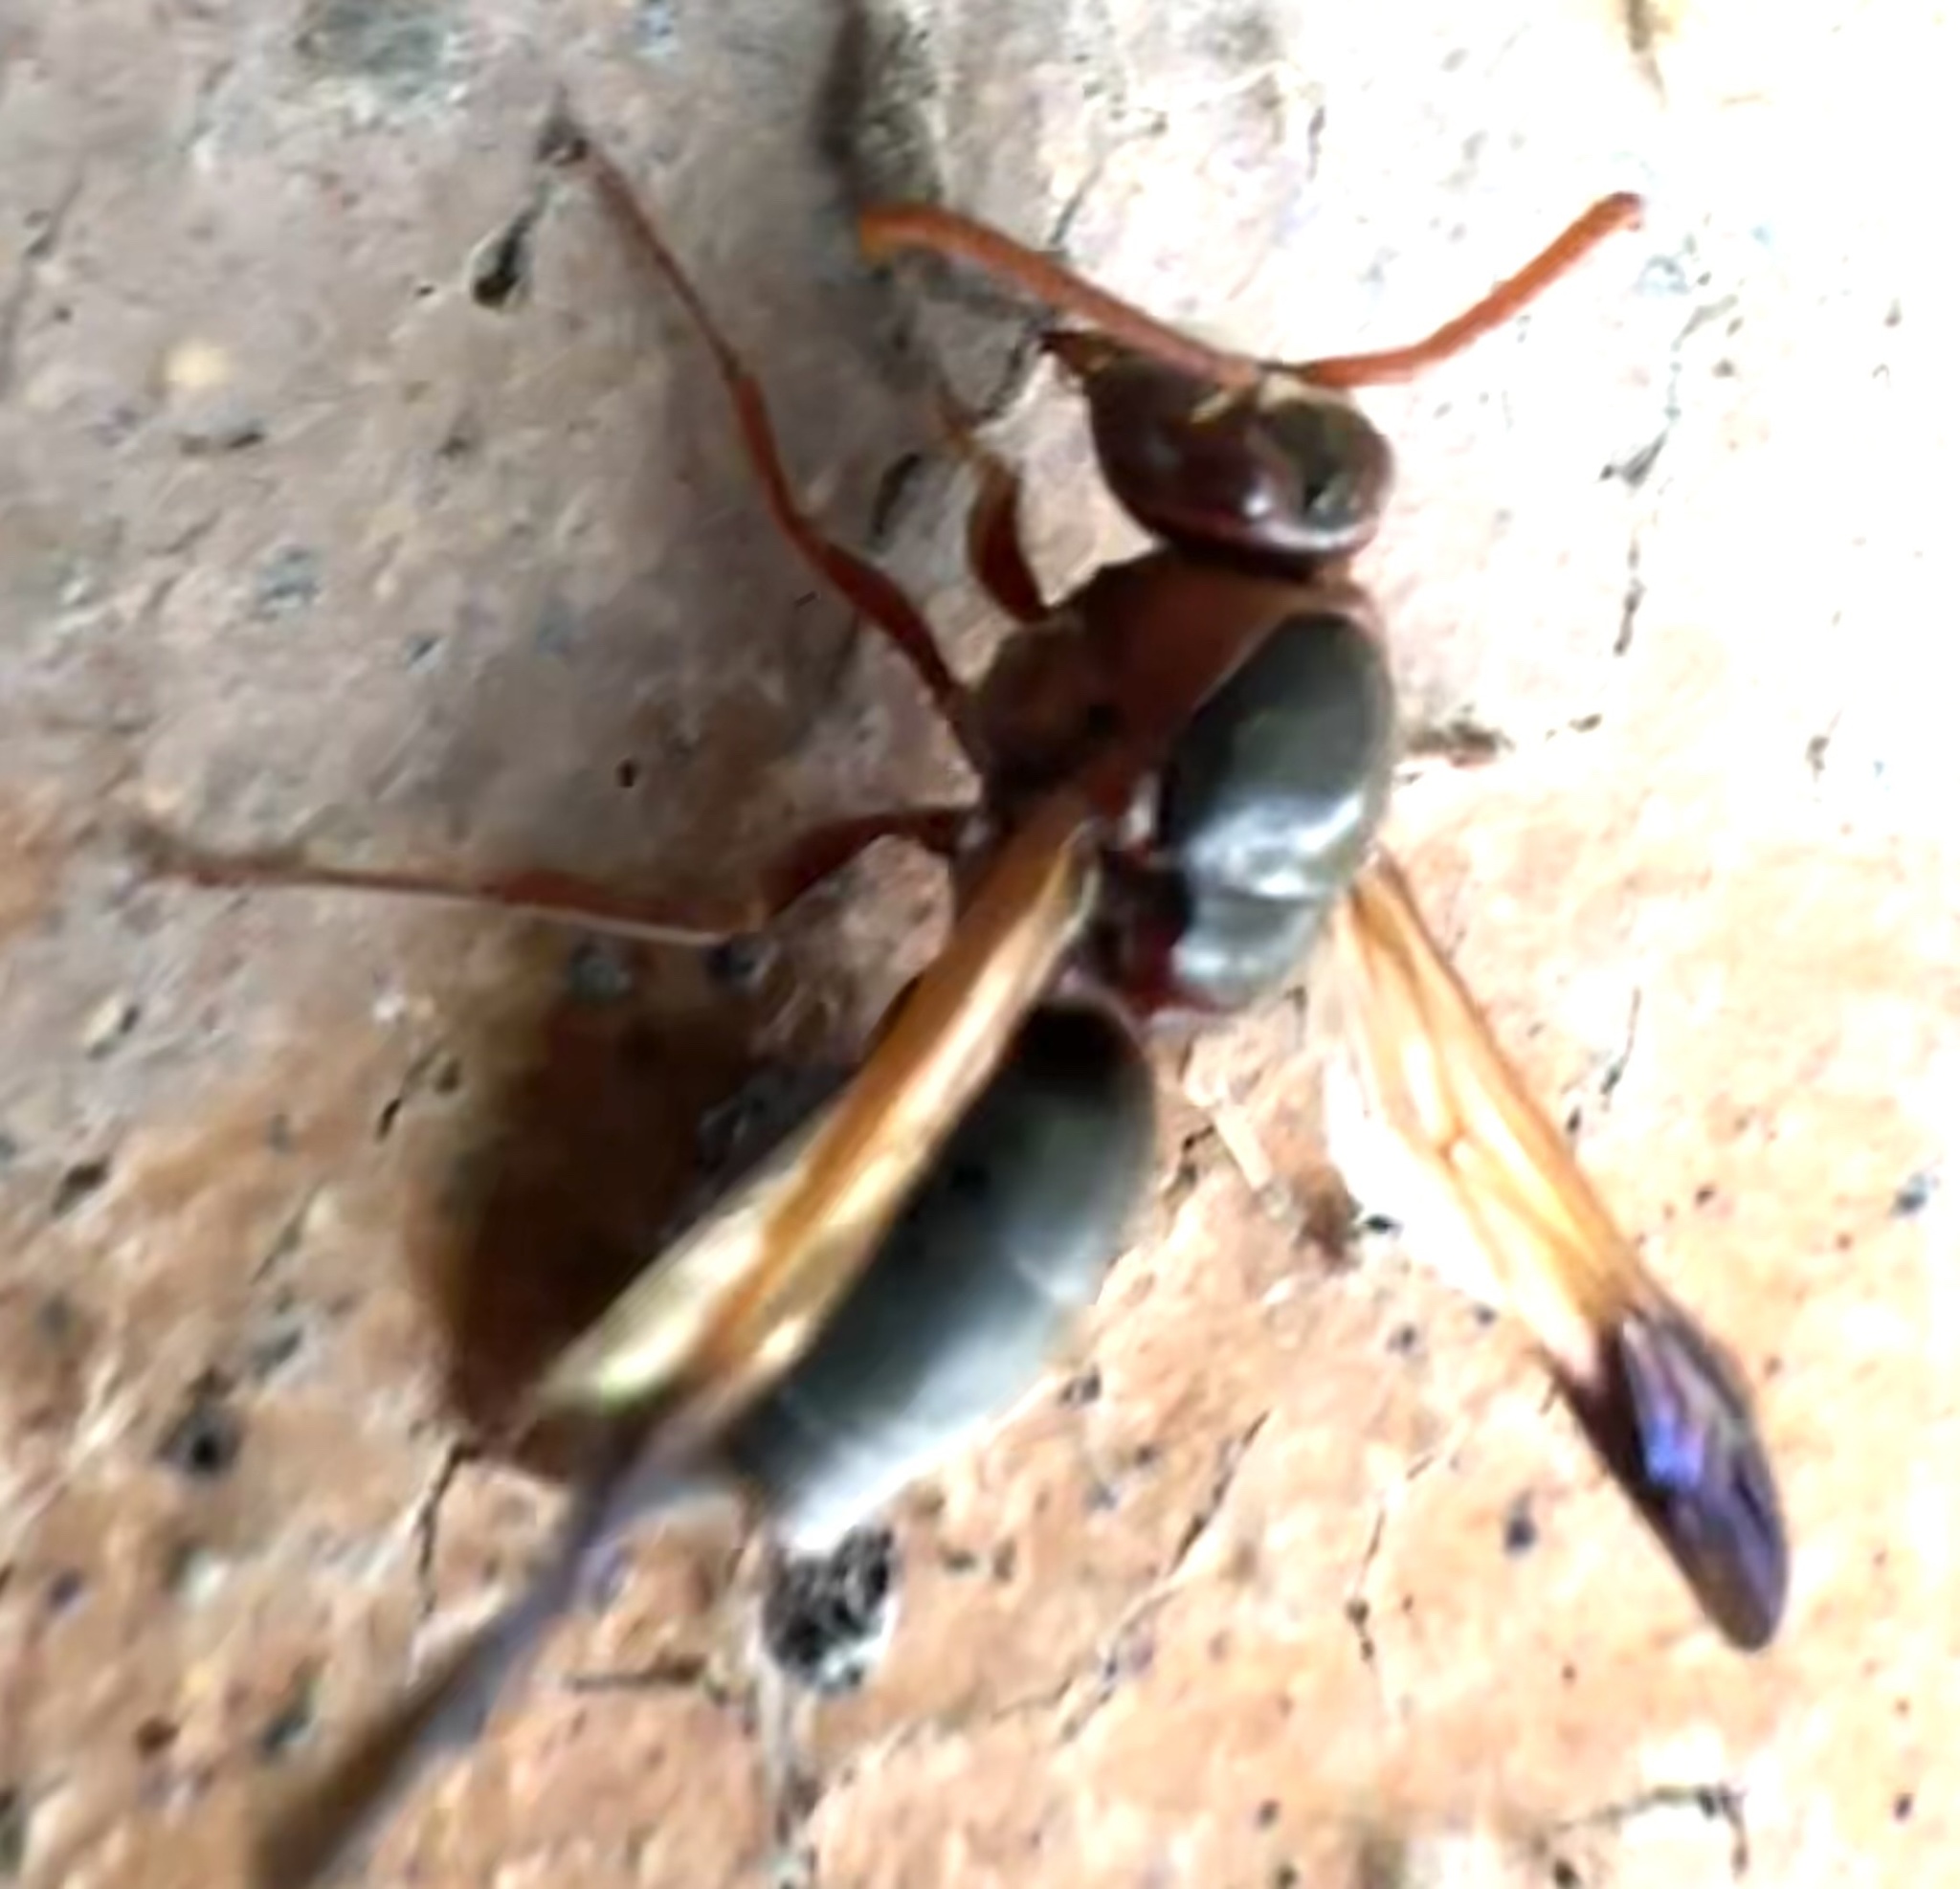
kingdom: Animalia
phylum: Arthropoda
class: Insecta
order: Hymenoptera
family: Eumenidae
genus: Rhynchium
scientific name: Rhynchium
